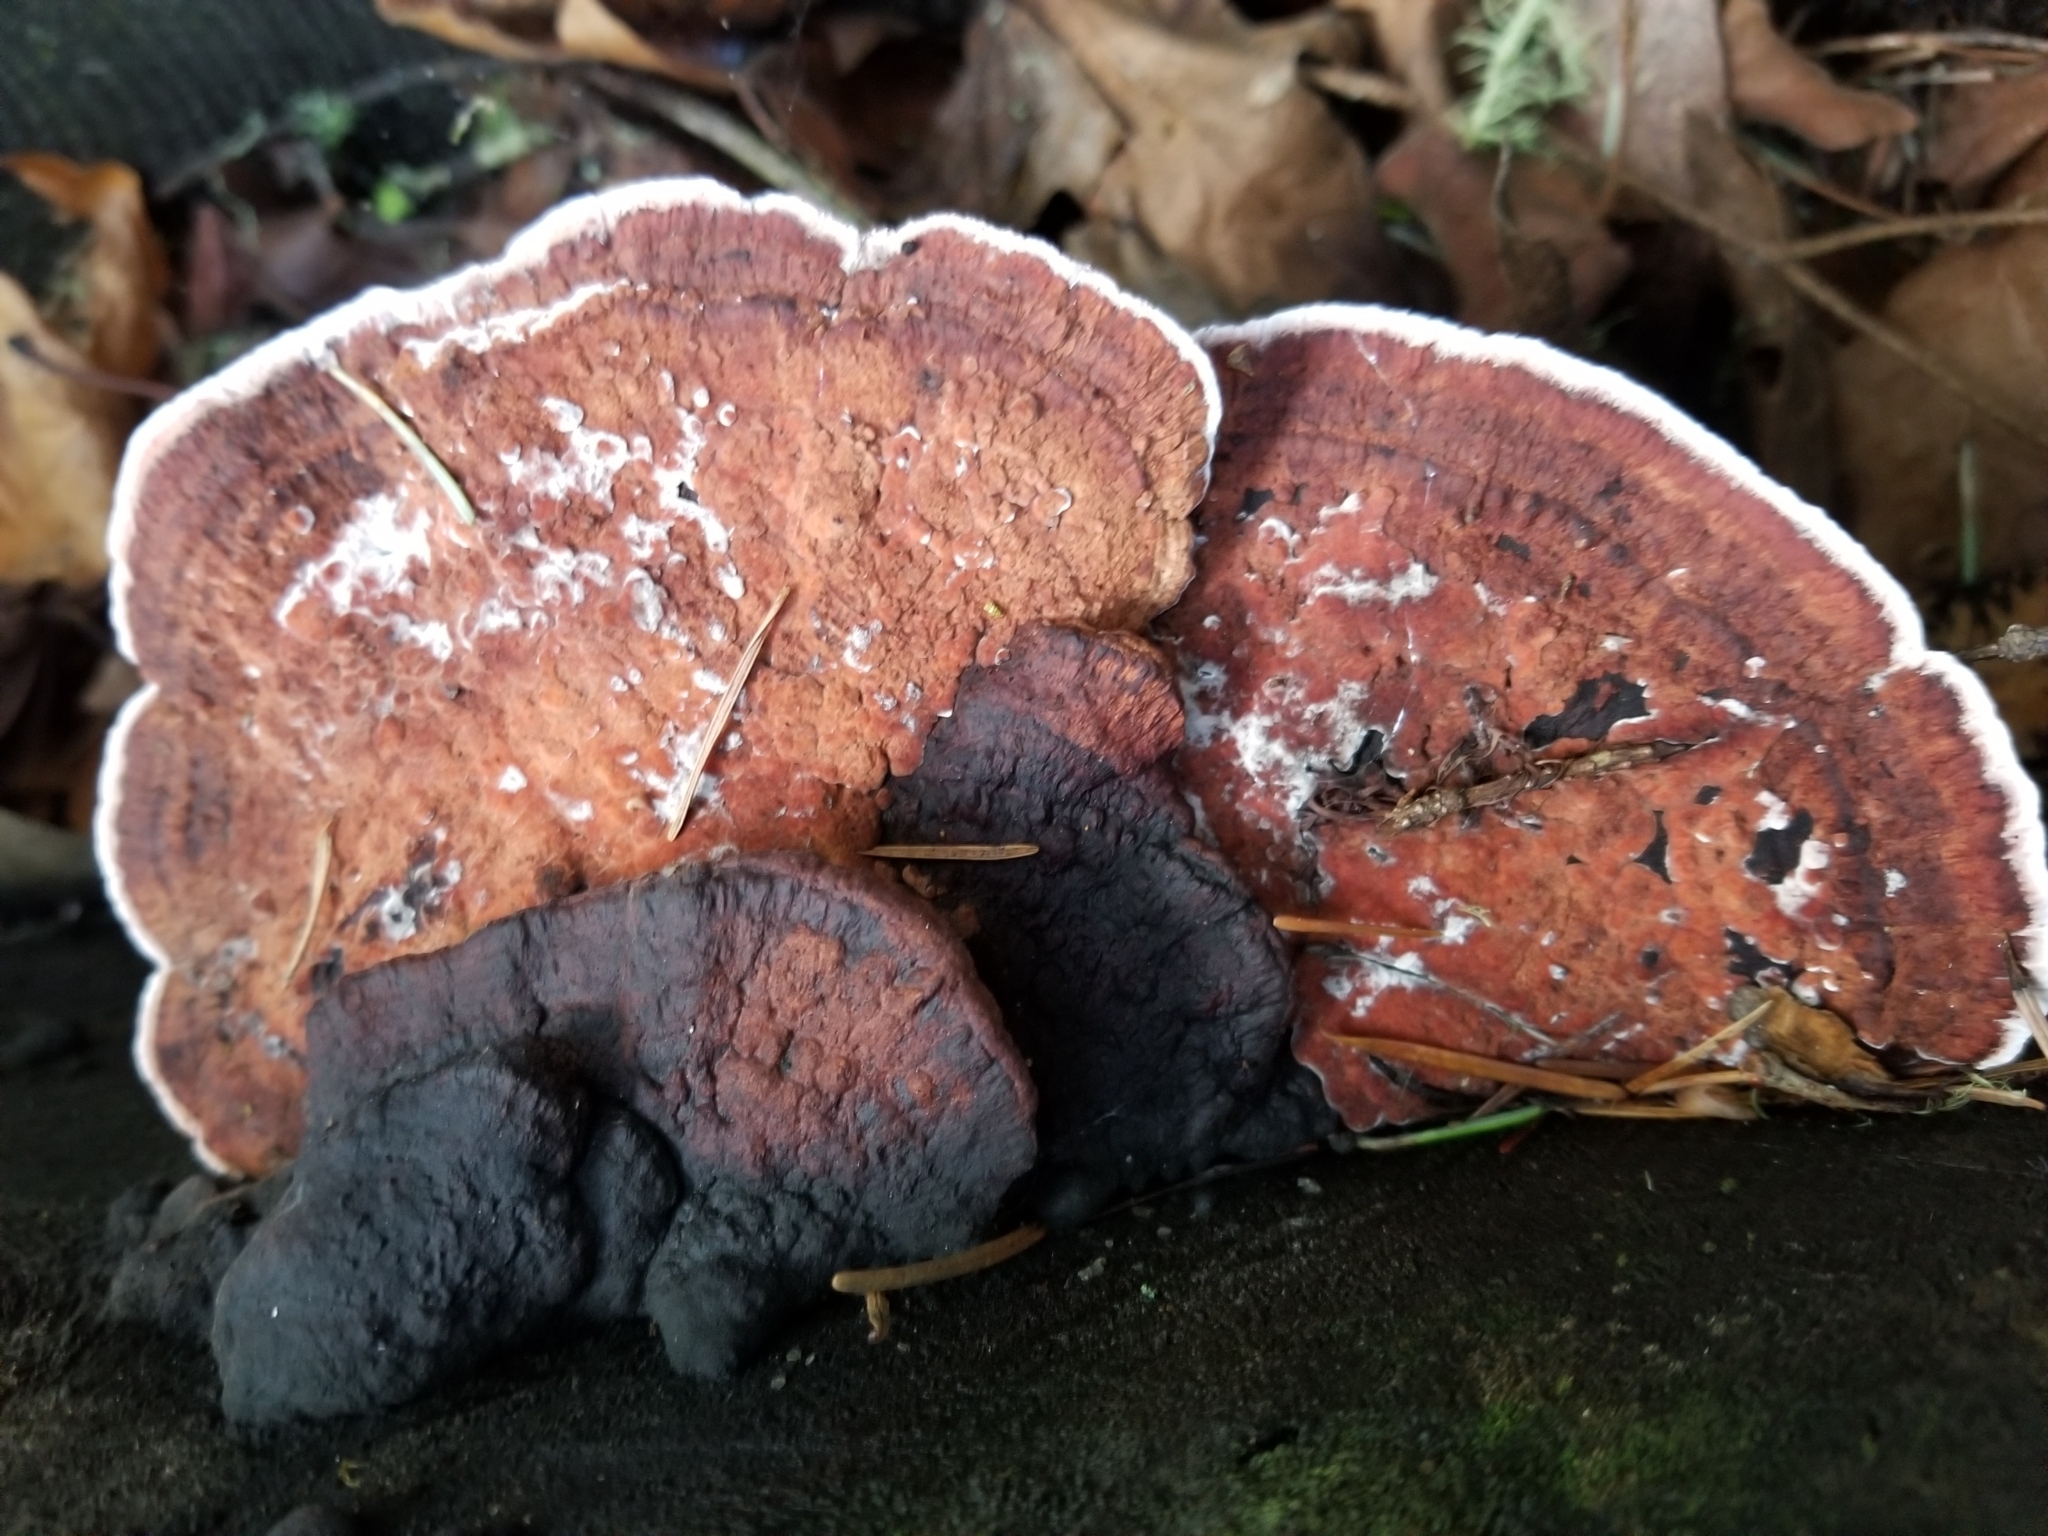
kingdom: Fungi
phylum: Basidiomycota
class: Agaricomycetes
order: Polyporales
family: Fomitopsidaceae
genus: Rhodofomes
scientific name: Rhodofomes cajanderi
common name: Rosy conk
